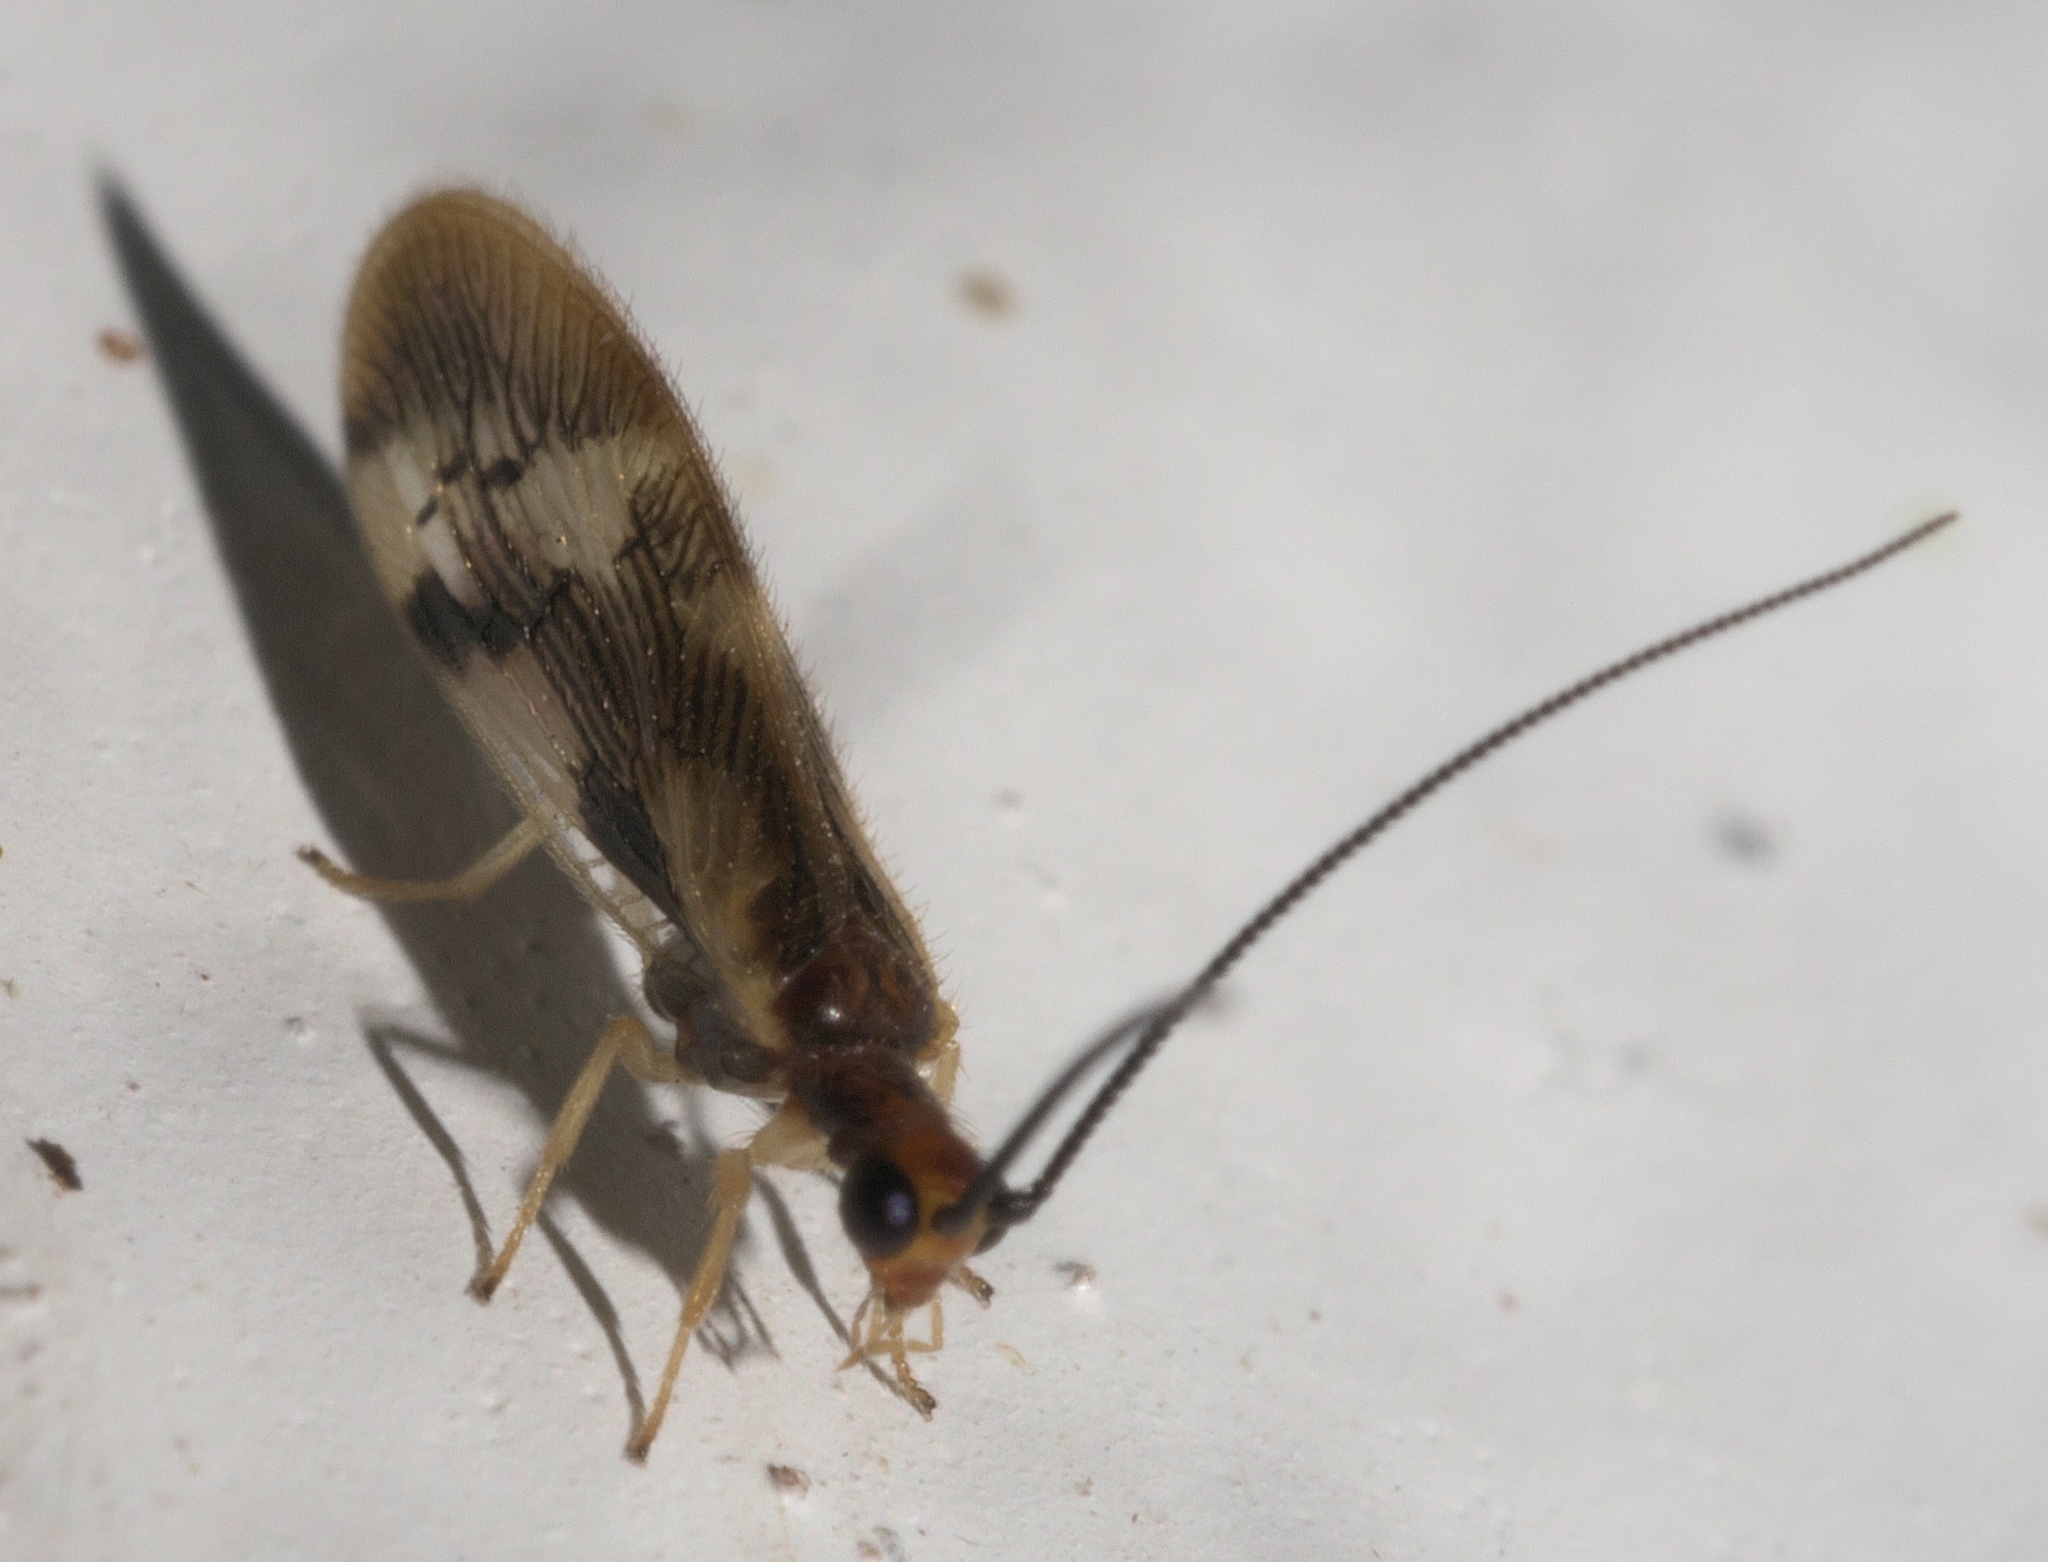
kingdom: Animalia
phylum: Arthropoda
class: Insecta
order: Neuroptera
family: Sisyridae
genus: Climacia
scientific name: Climacia areolaris
